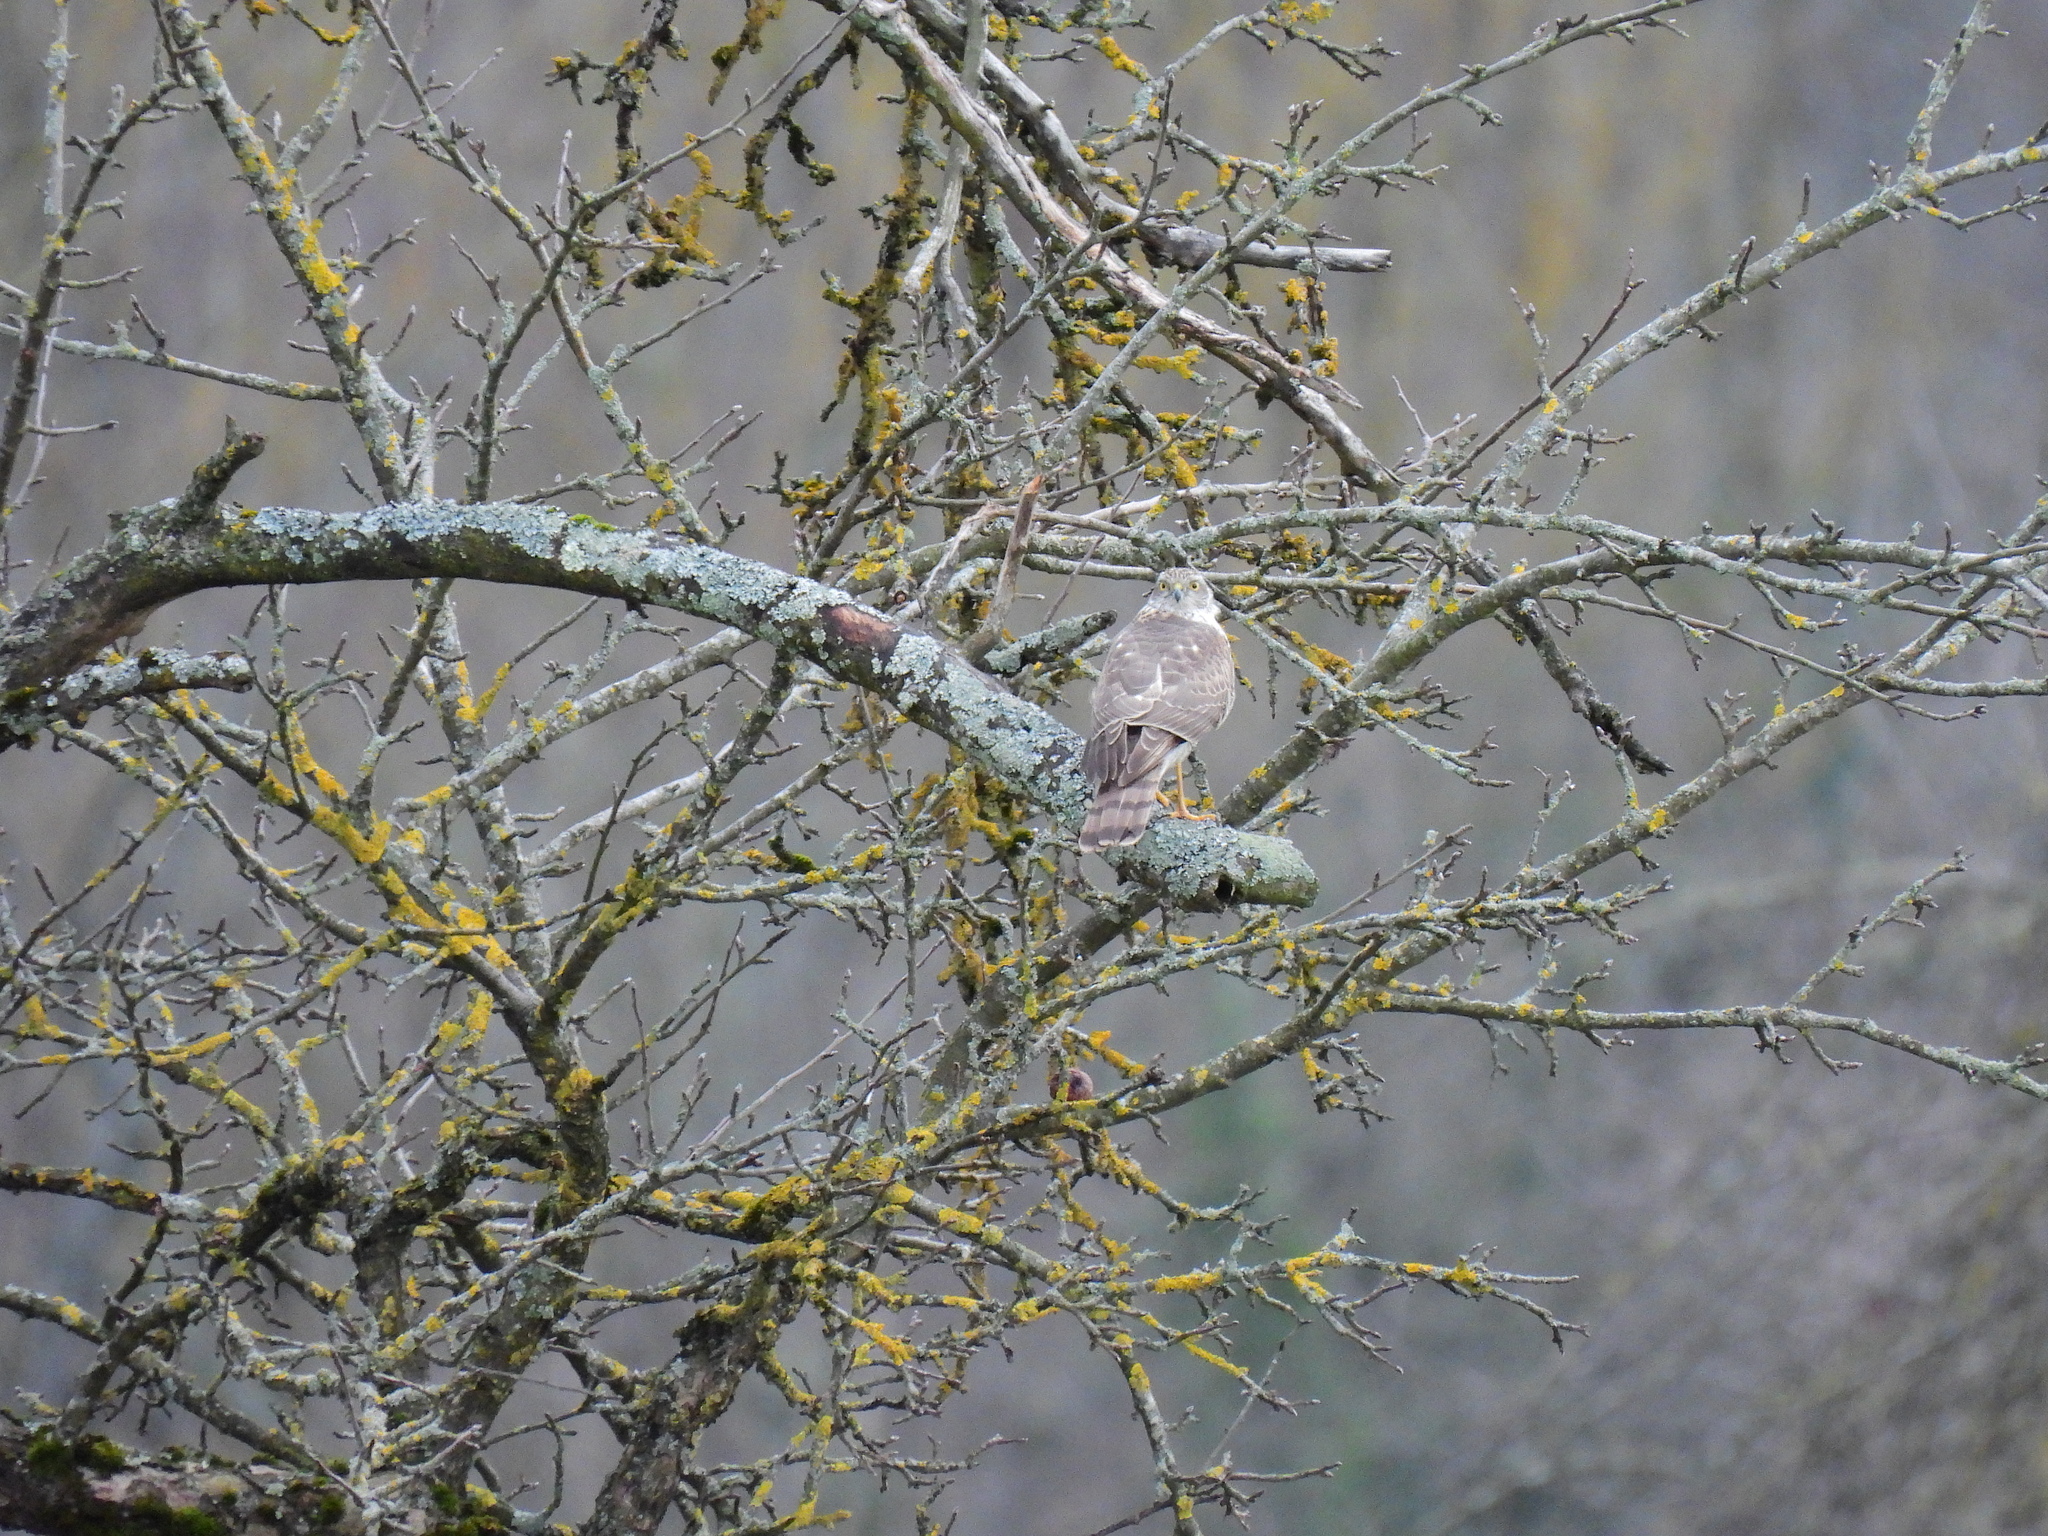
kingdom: Animalia
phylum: Chordata
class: Aves
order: Accipitriformes
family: Accipitridae
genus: Accipiter
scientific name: Accipiter nisus
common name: Eurasian sparrowhawk
